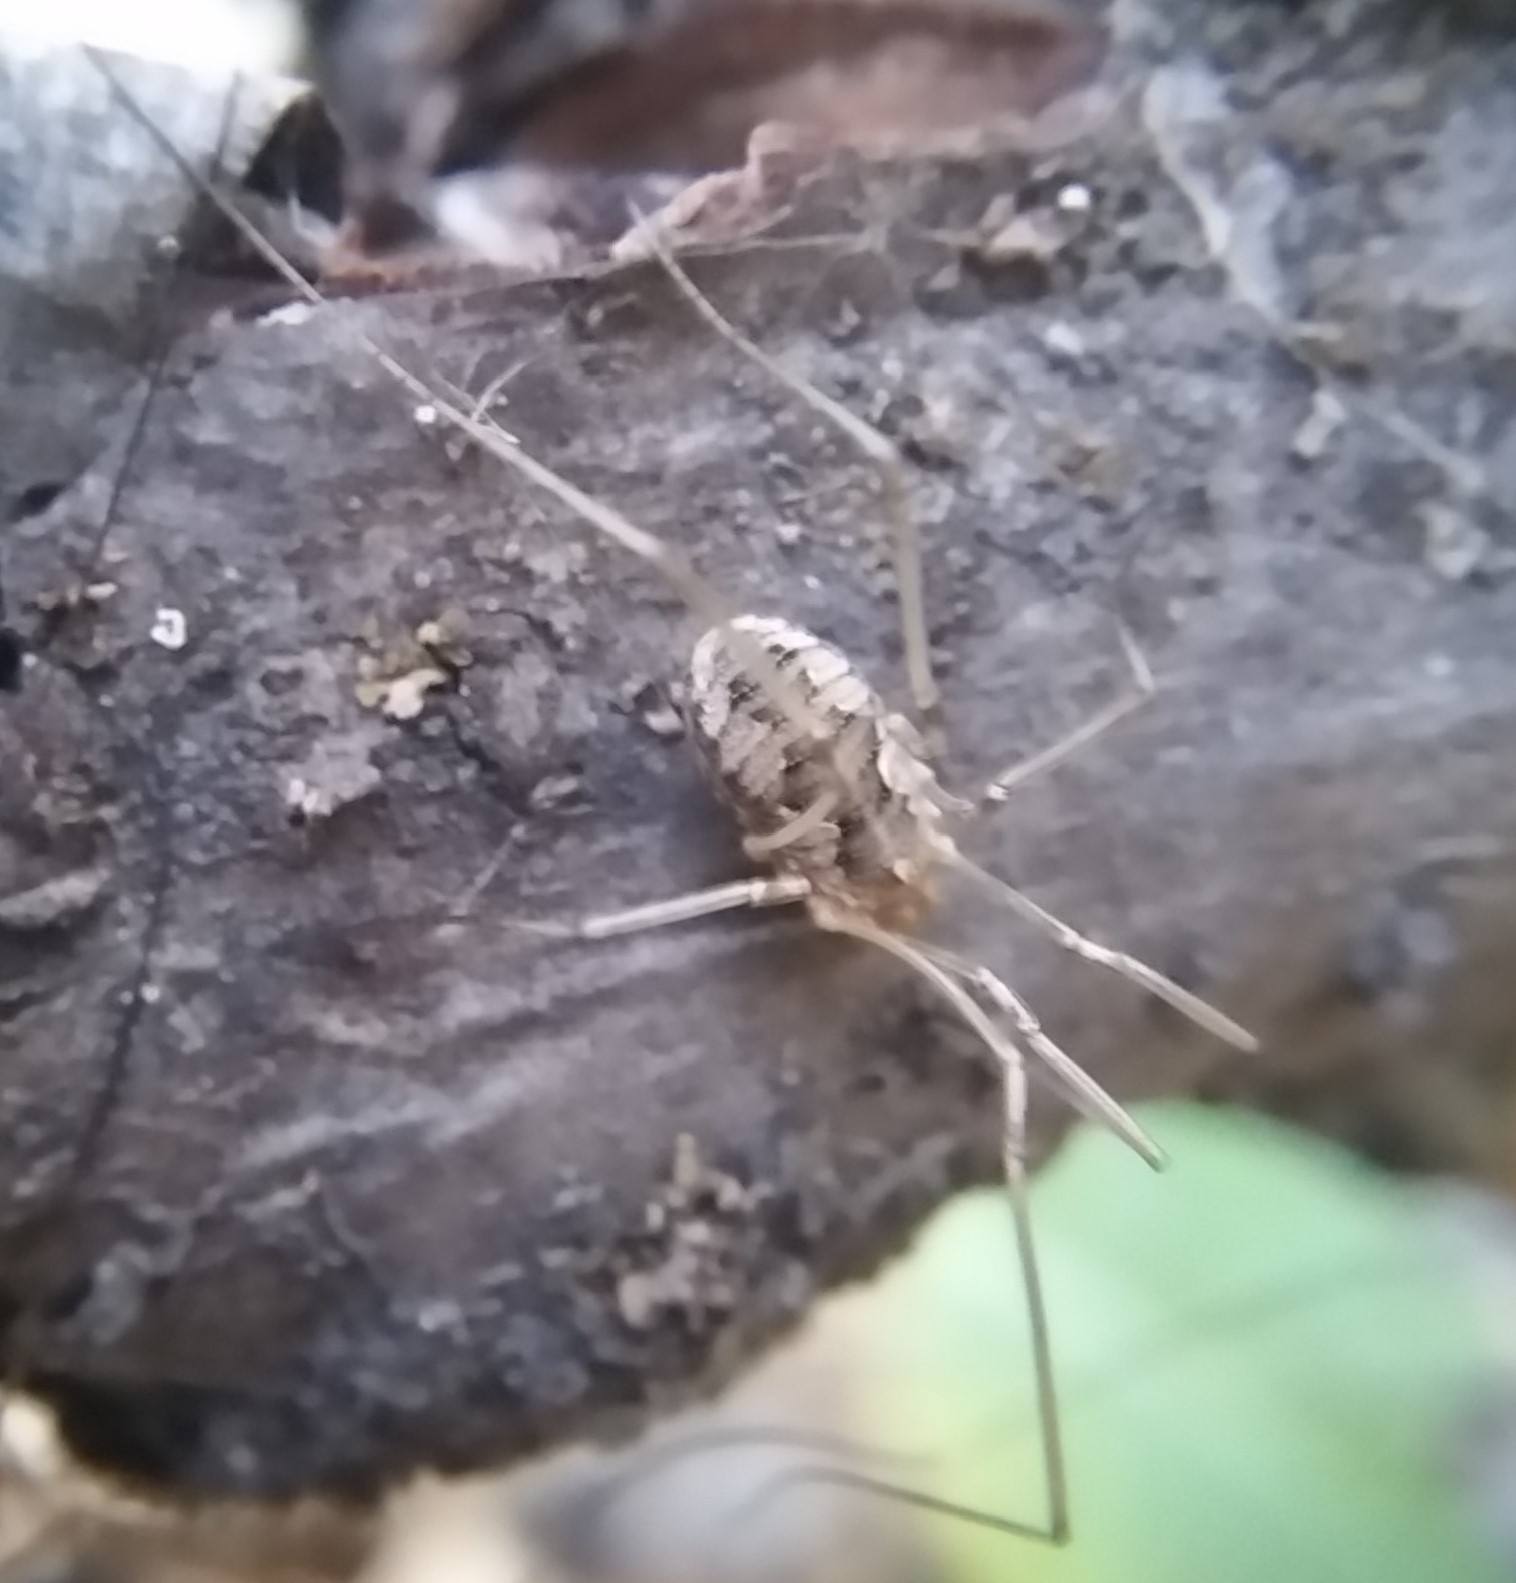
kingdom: Animalia
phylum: Arthropoda
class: Arachnida
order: Opiliones
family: Phalangiidae
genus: Phalangium
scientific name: Phalangium opilio
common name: Daddy longleg
